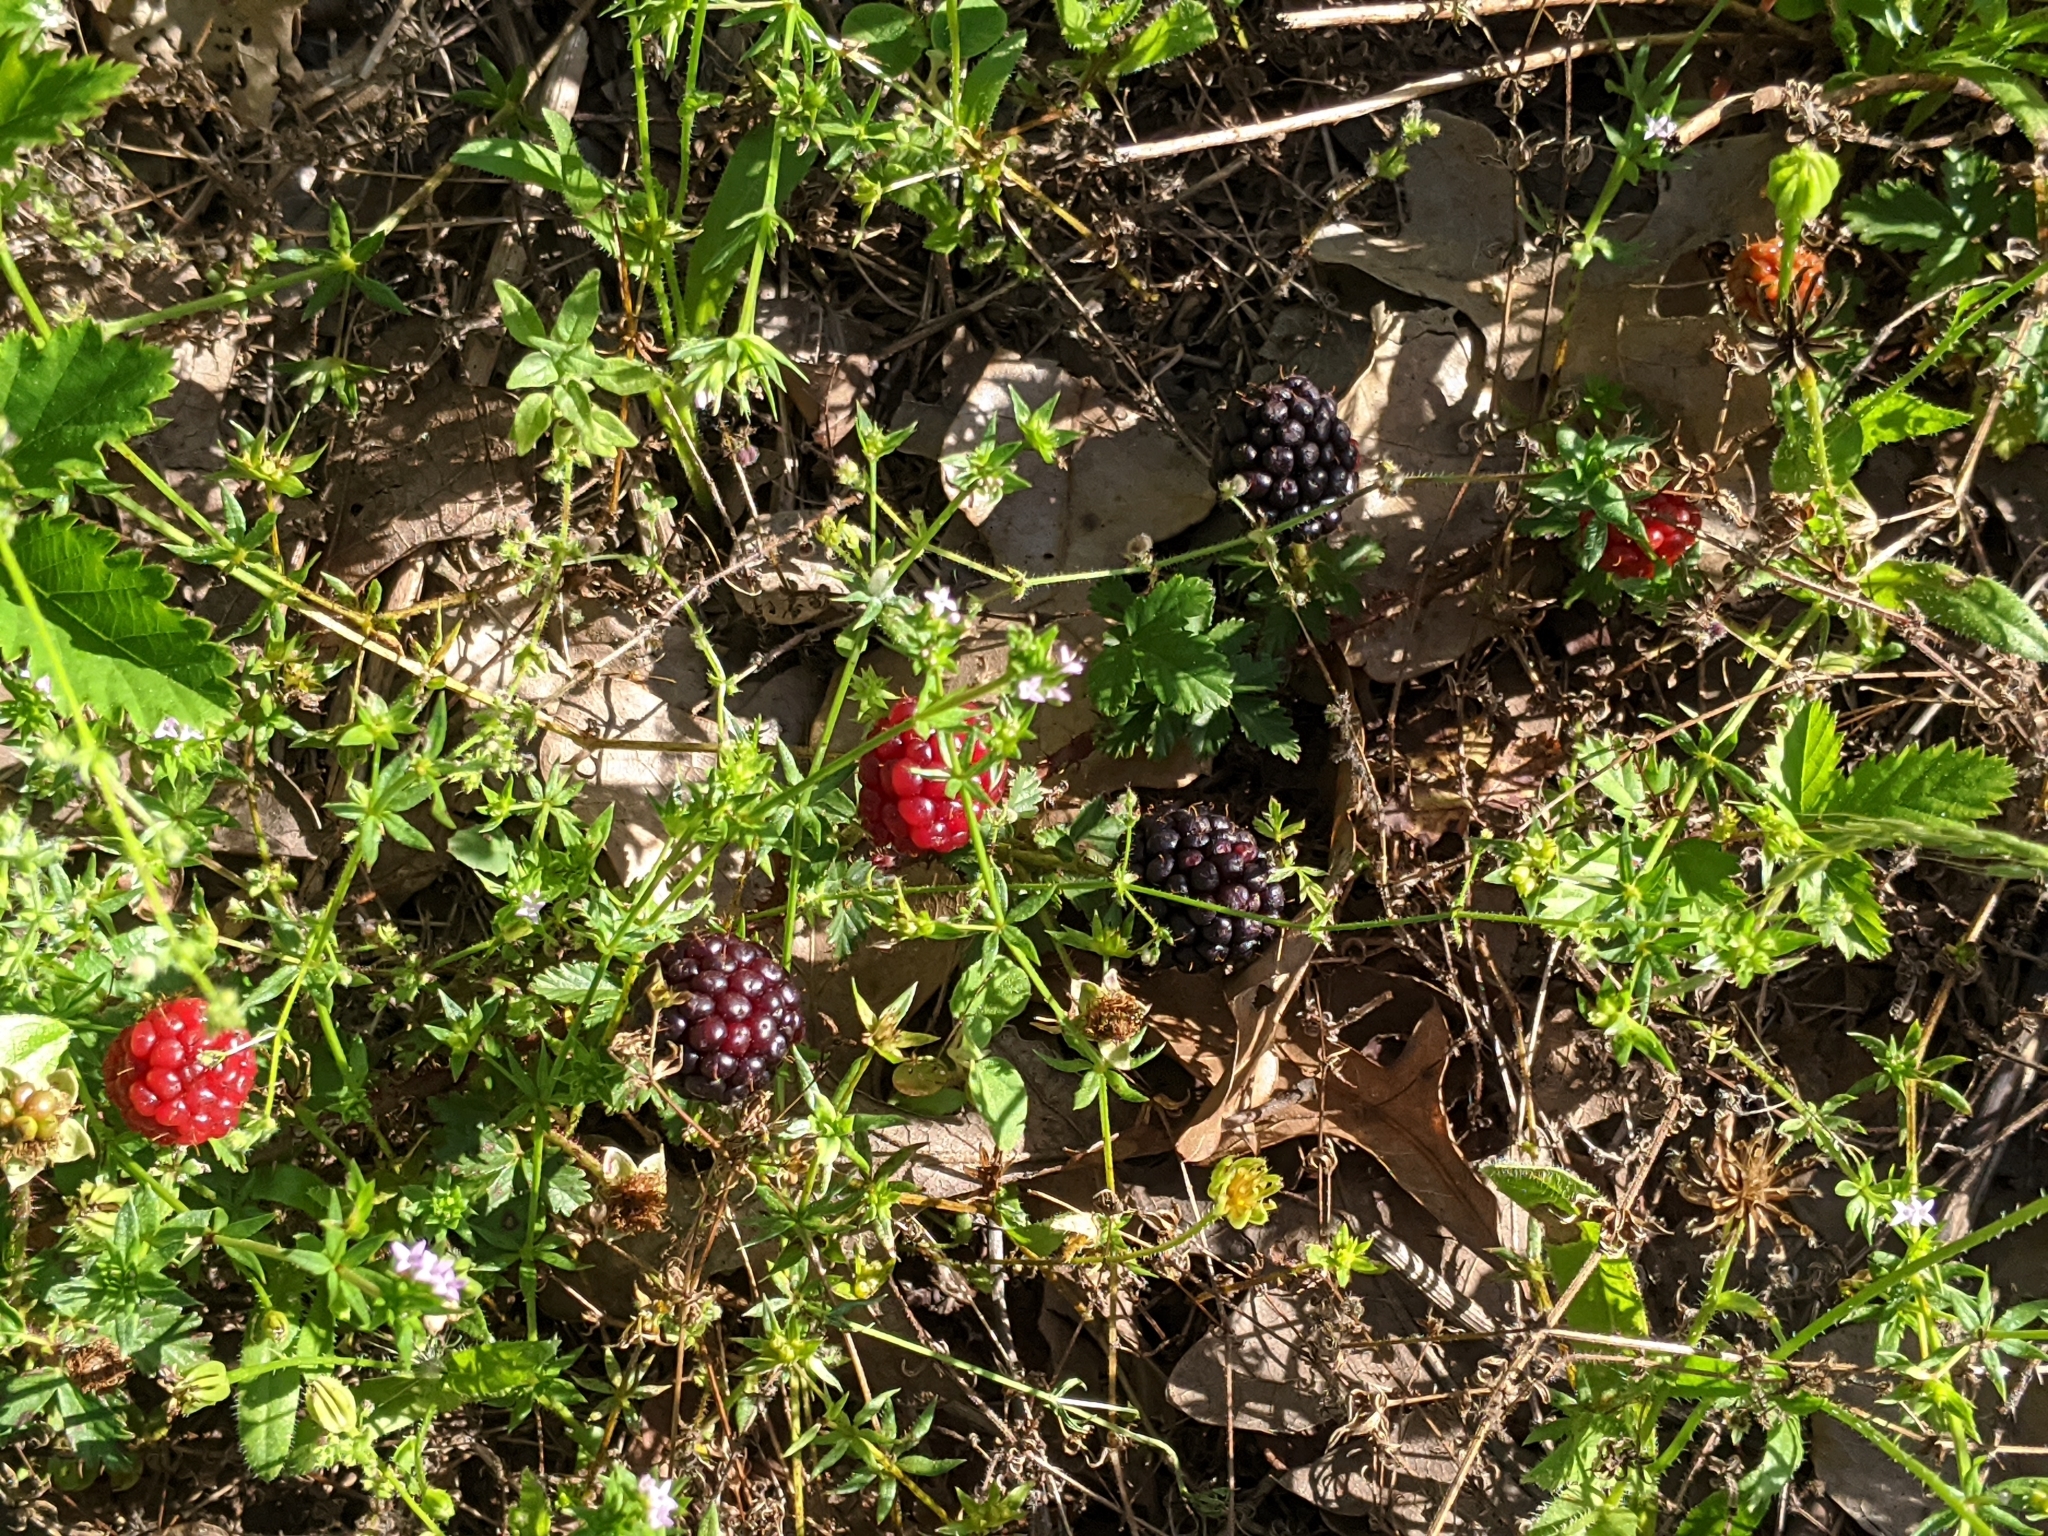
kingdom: Plantae
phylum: Tracheophyta
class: Magnoliopsida
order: Rosales
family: Rosaceae
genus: Rubus
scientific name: Rubus trivialis
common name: Southern dewberry
